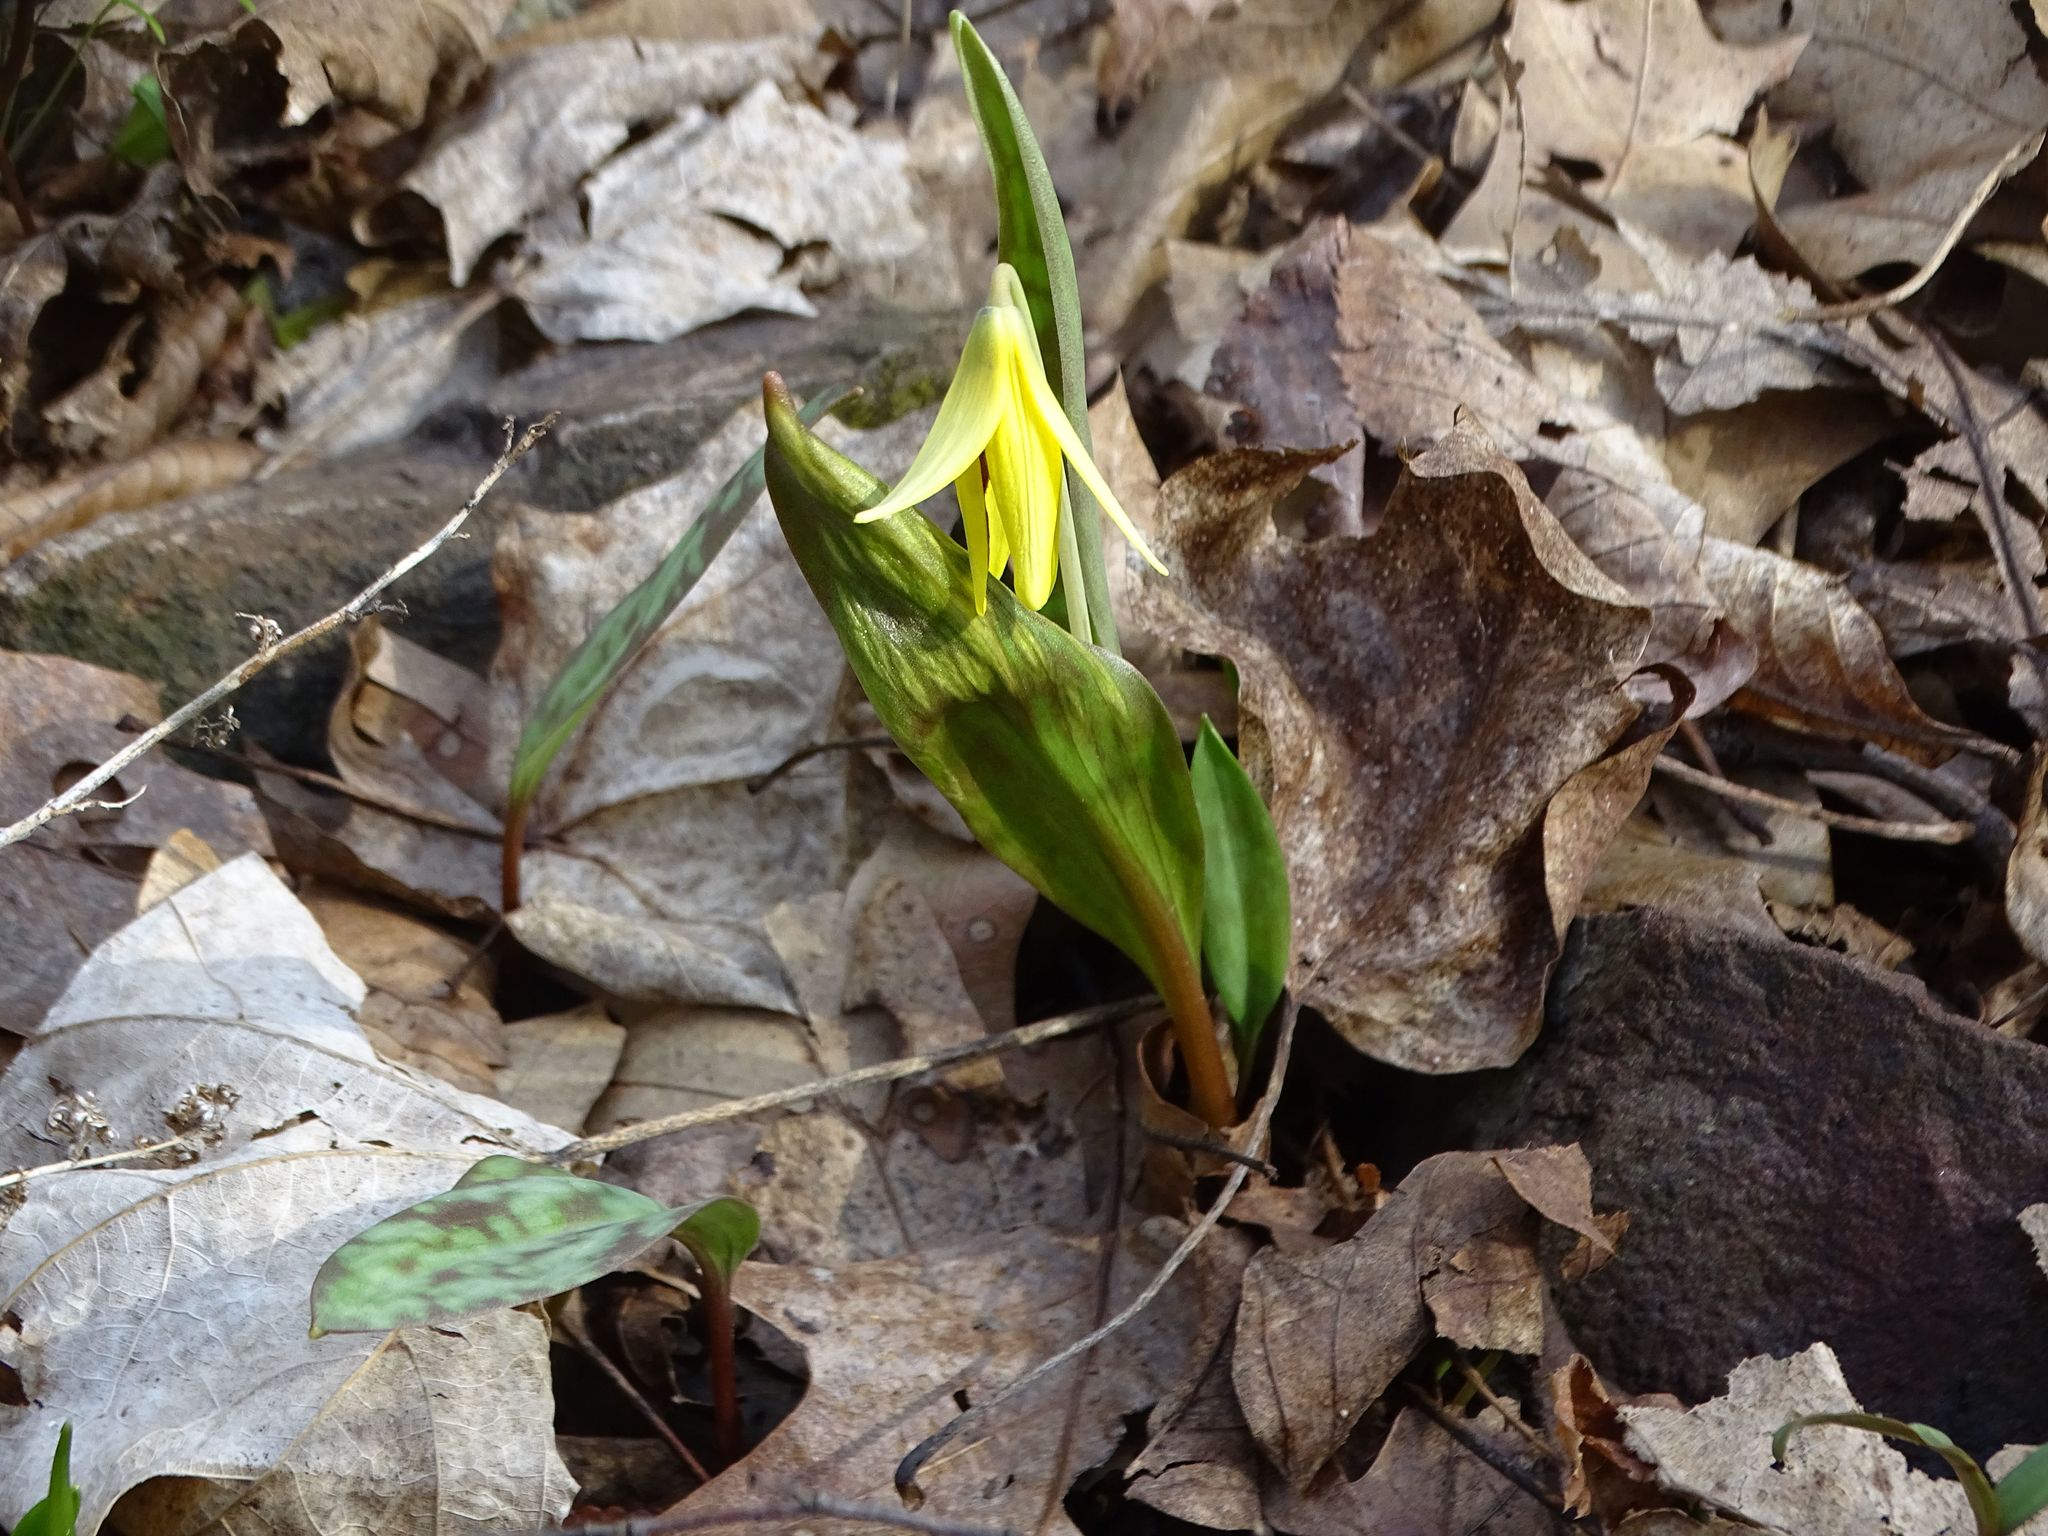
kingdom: Plantae
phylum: Tracheophyta
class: Liliopsida
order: Liliales
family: Liliaceae
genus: Erythronium
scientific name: Erythronium americanum
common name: Yellow adder's-tongue
